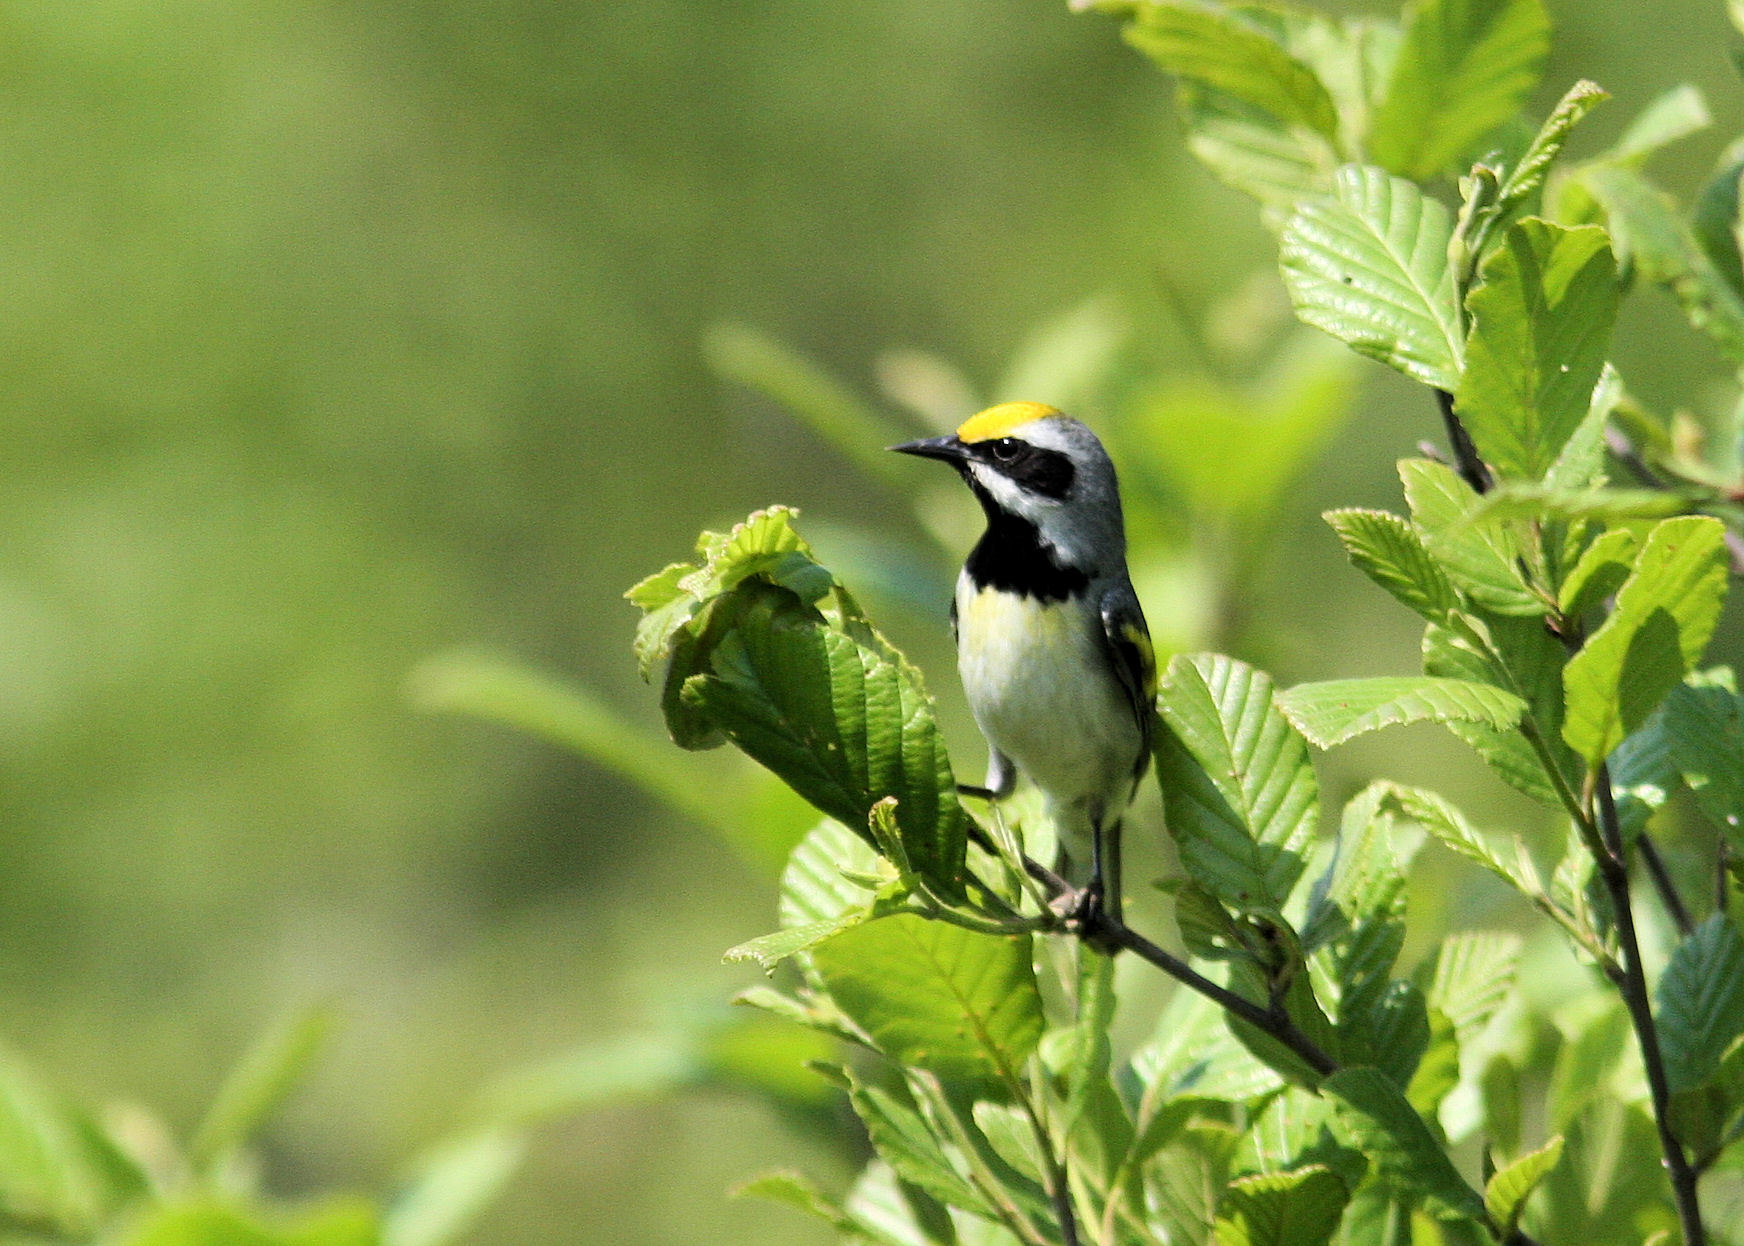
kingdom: Animalia
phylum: Chordata
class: Aves
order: Passeriformes
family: Parulidae
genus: Vermivora
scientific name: Vermivora chrysoptera
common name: Golden-winged warbler
